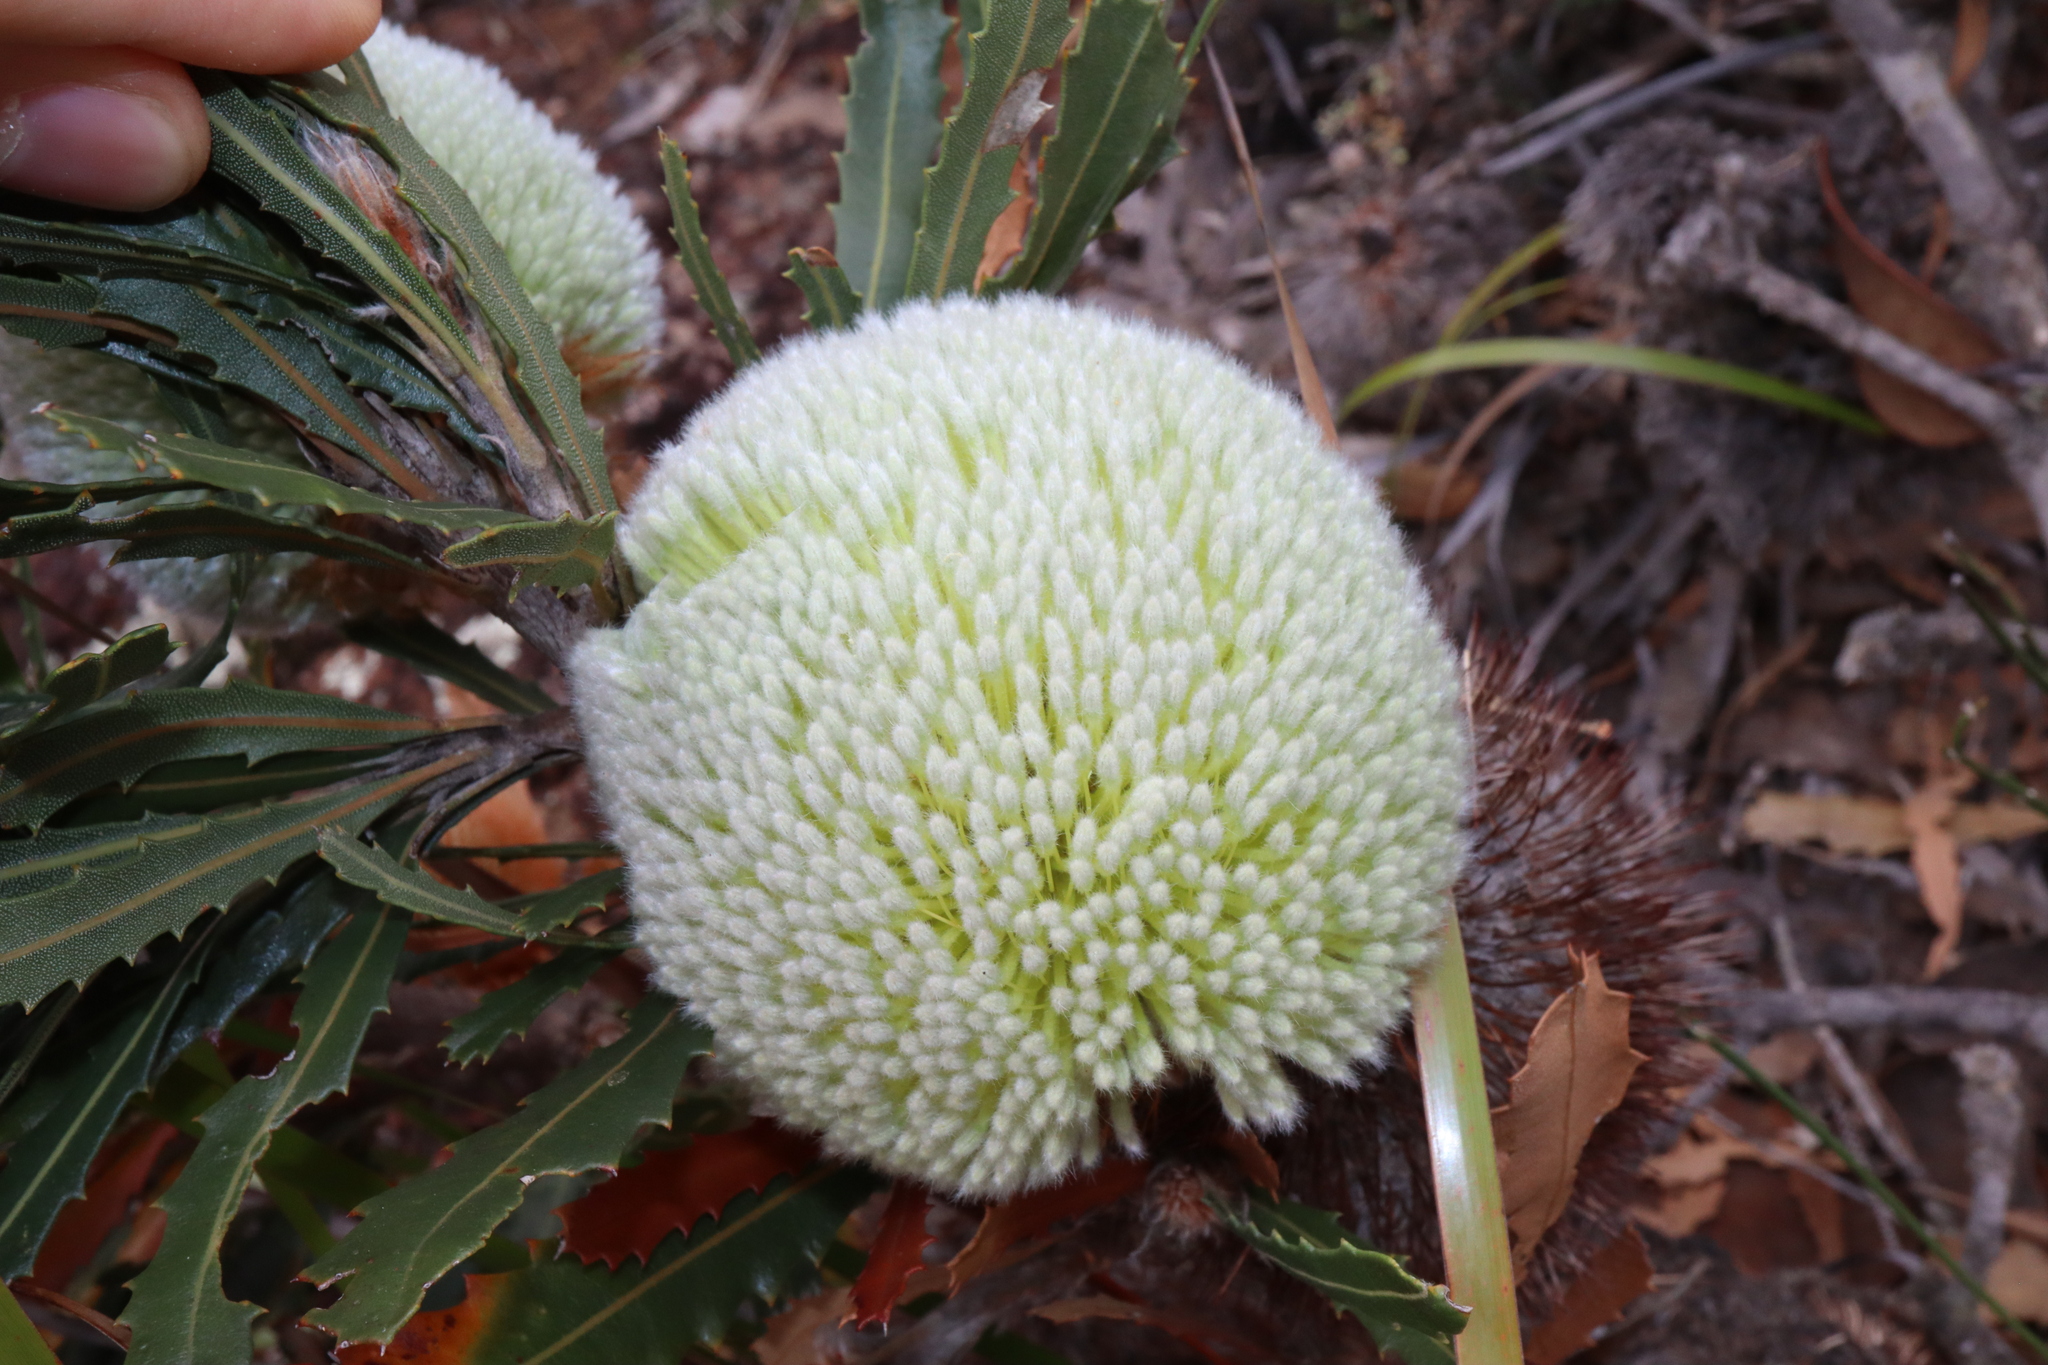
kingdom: Plantae
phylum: Tracheophyta
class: Magnoliopsida
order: Proteales
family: Proteaceae
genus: Banksia
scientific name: Banksia laevigata
